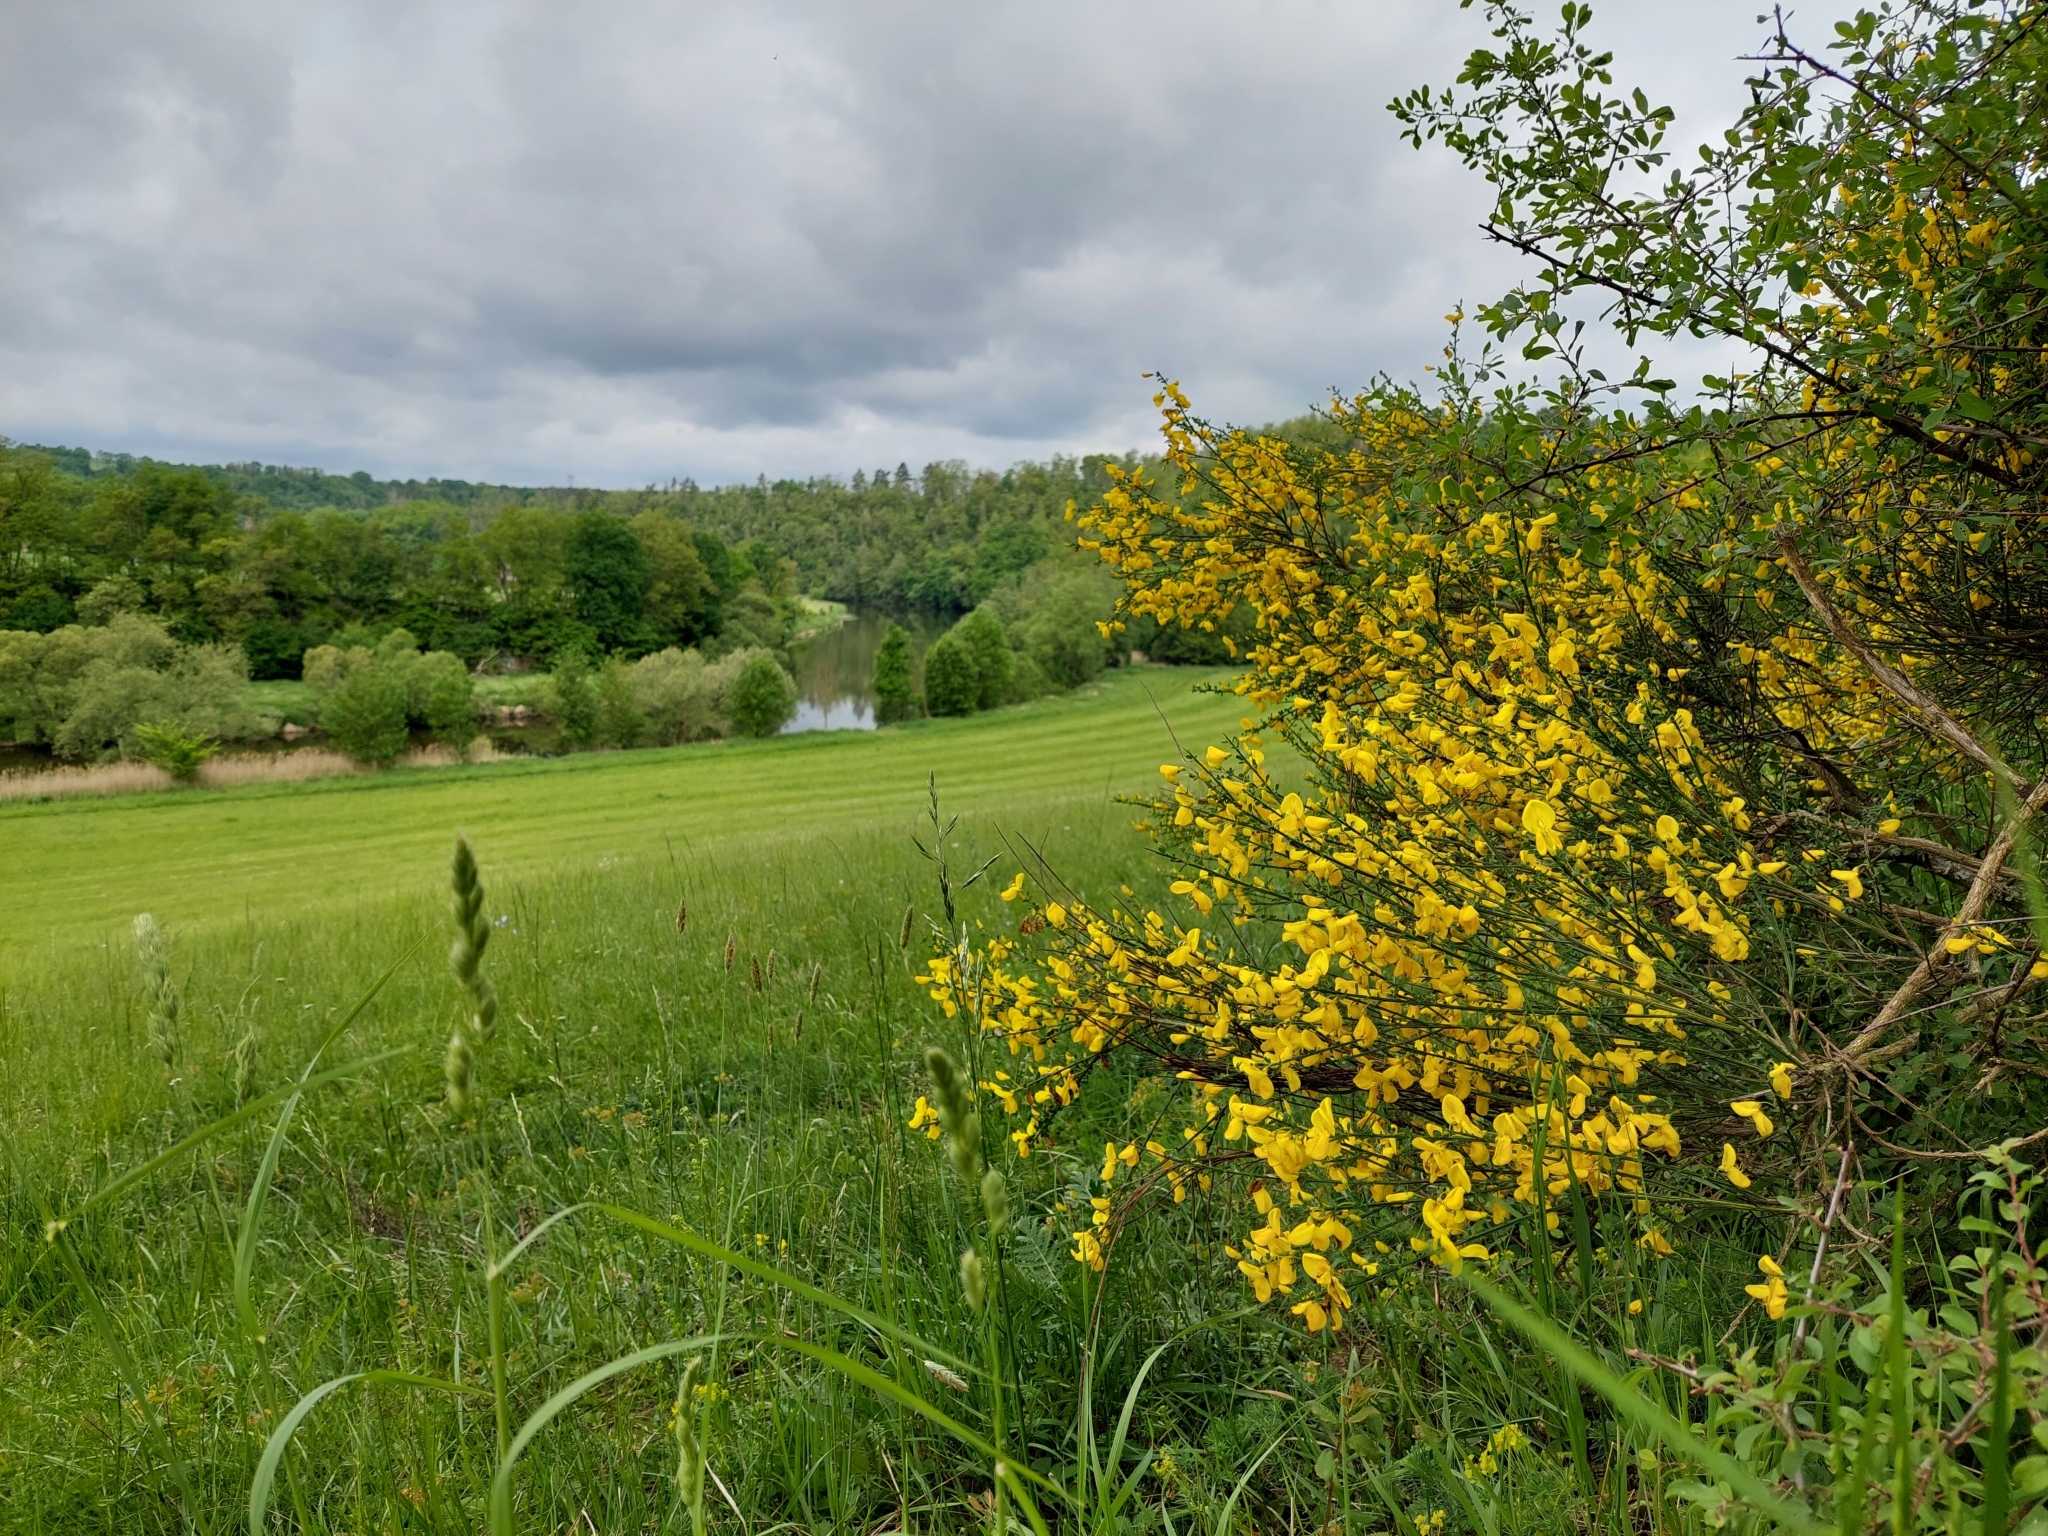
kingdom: Plantae
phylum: Tracheophyta
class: Magnoliopsida
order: Fabales
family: Fabaceae
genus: Cytisus
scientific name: Cytisus scoparius
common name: Scotch broom
